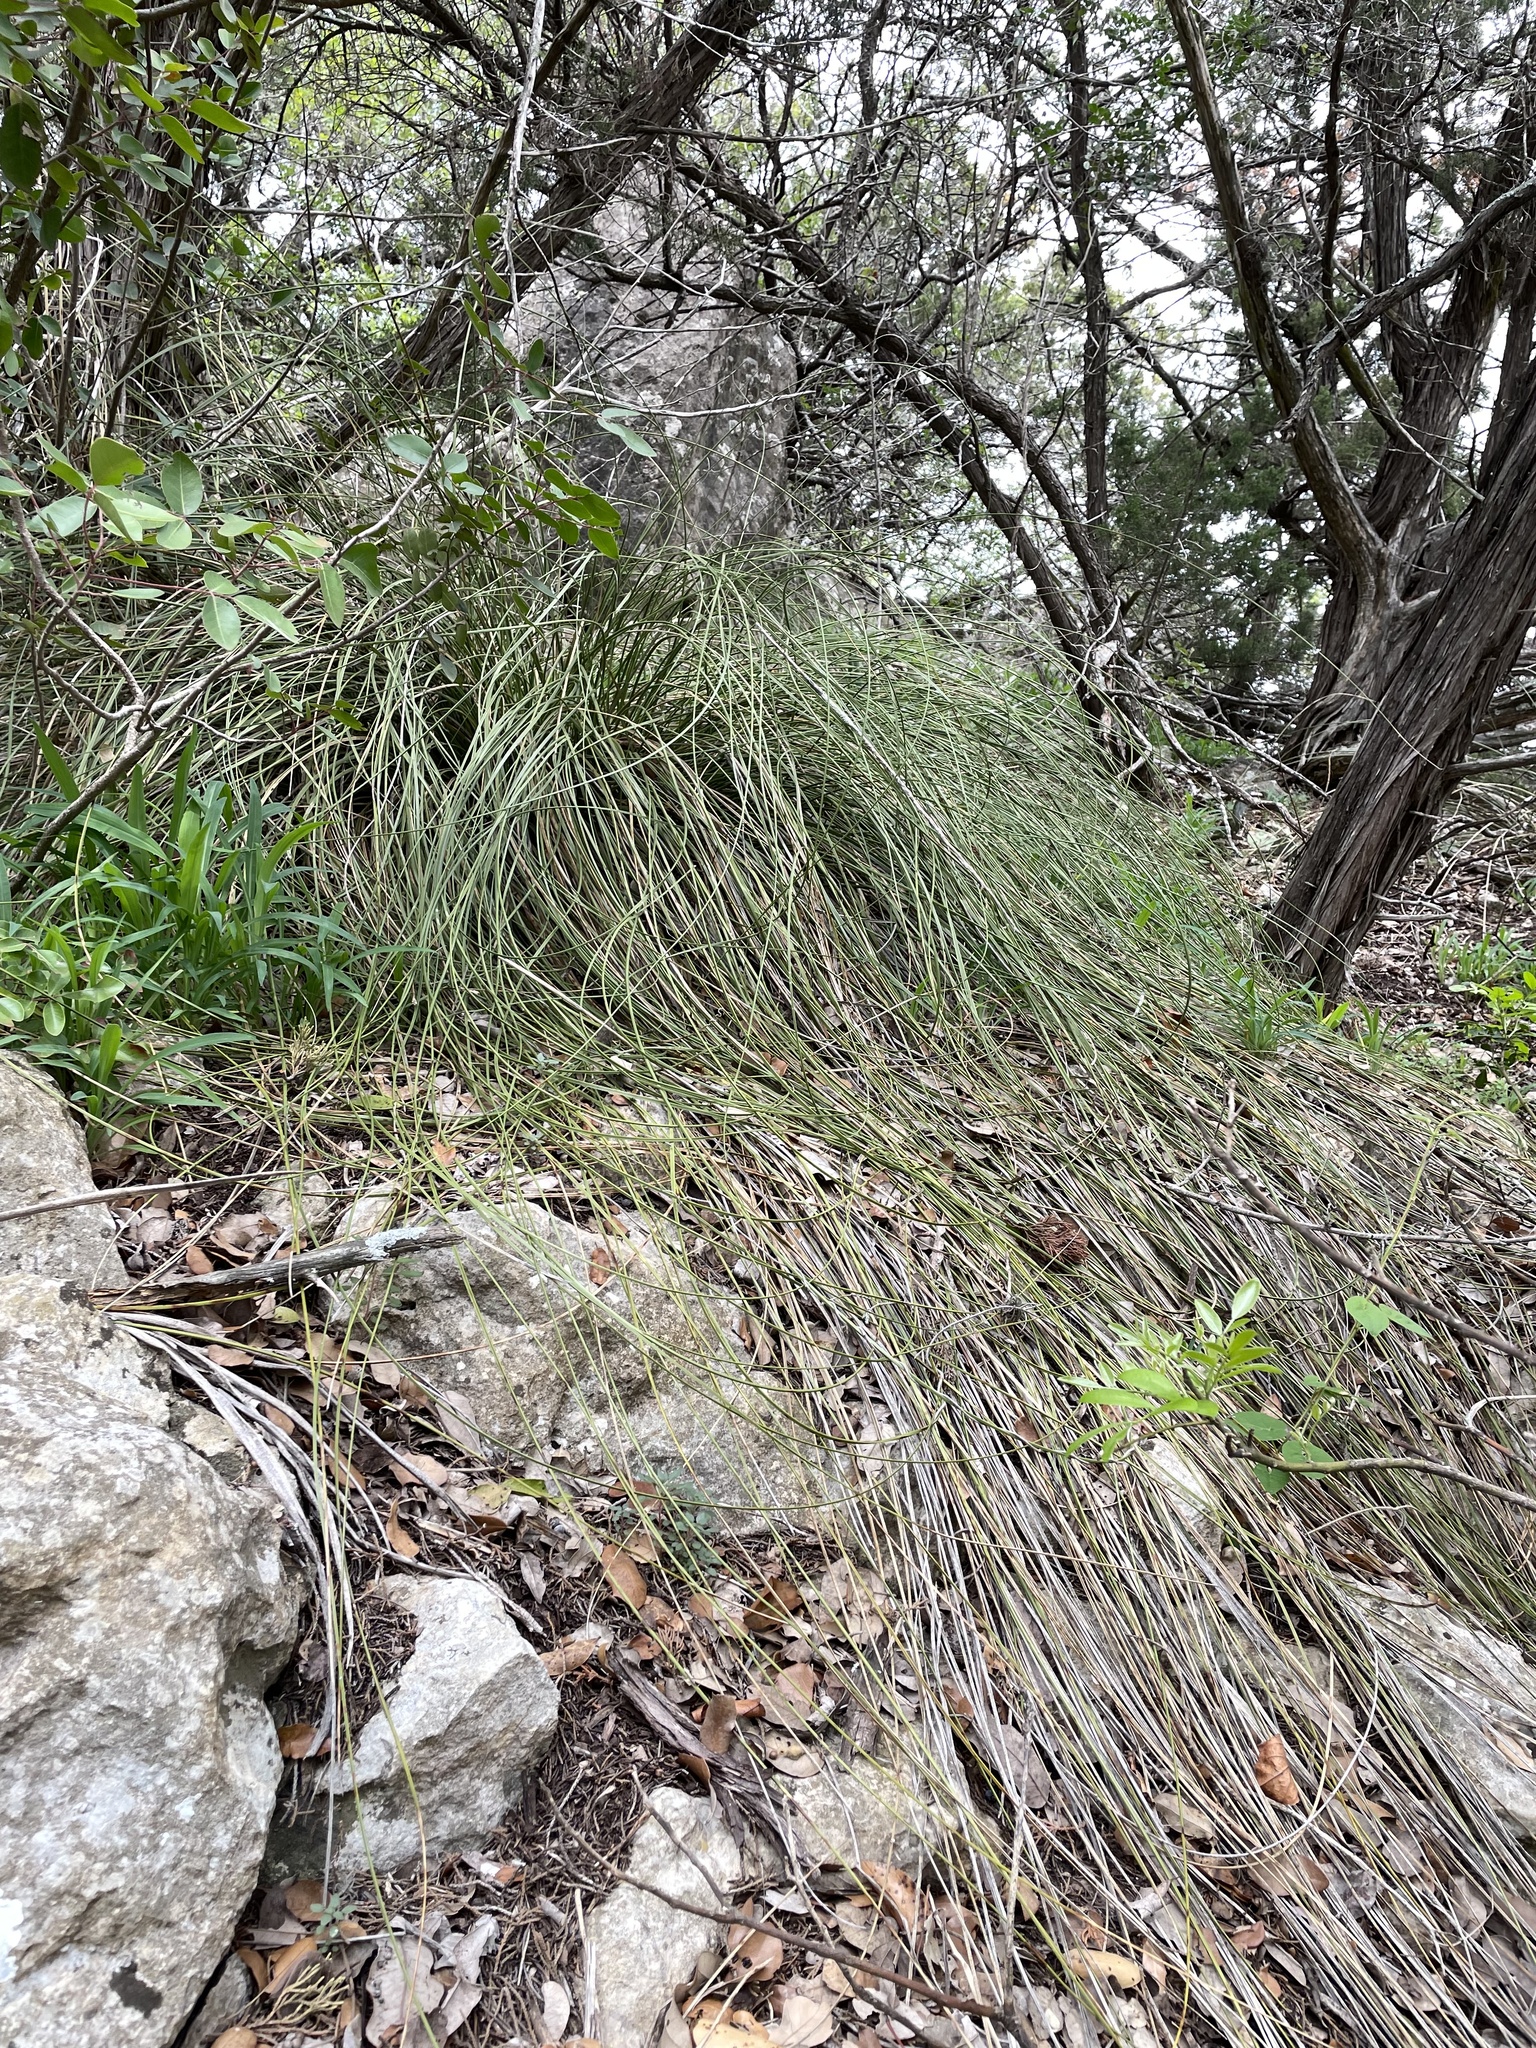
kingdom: Plantae
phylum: Tracheophyta
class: Liliopsida
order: Asparagales
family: Asparagaceae
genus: Nolina
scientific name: Nolina texana
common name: Texas sacahuiste
